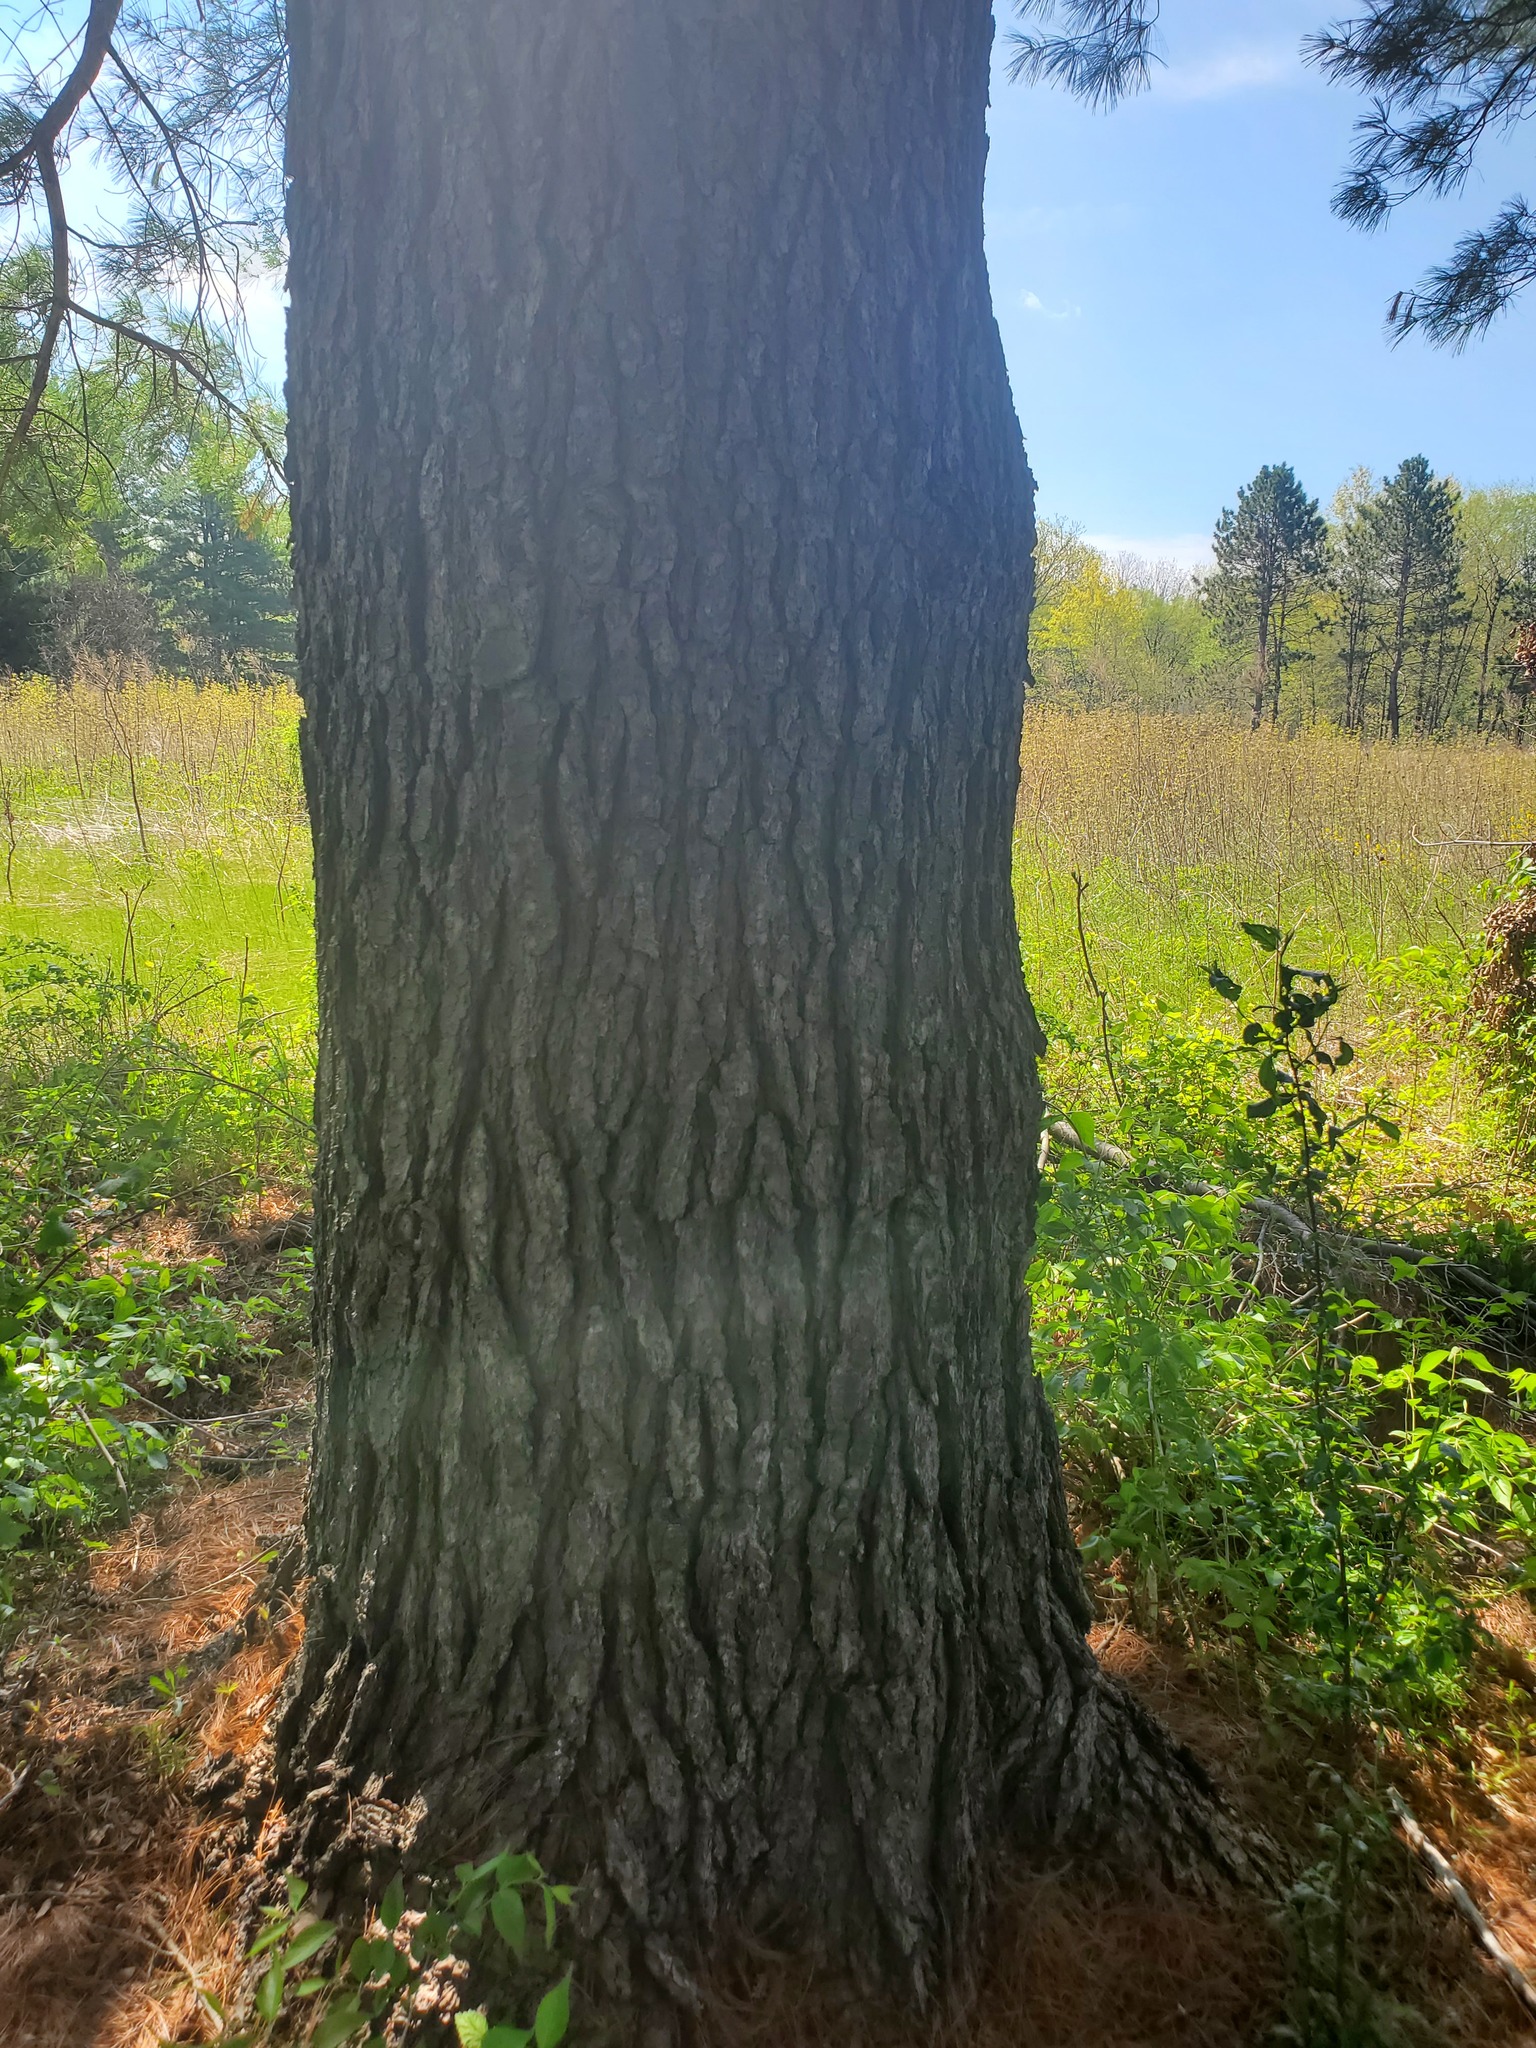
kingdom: Plantae
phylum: Tracheophyta
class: Pinopsida
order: Pinales
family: Pinaceae
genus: Pinus
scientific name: Pinus strobus
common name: Weymouth pine
